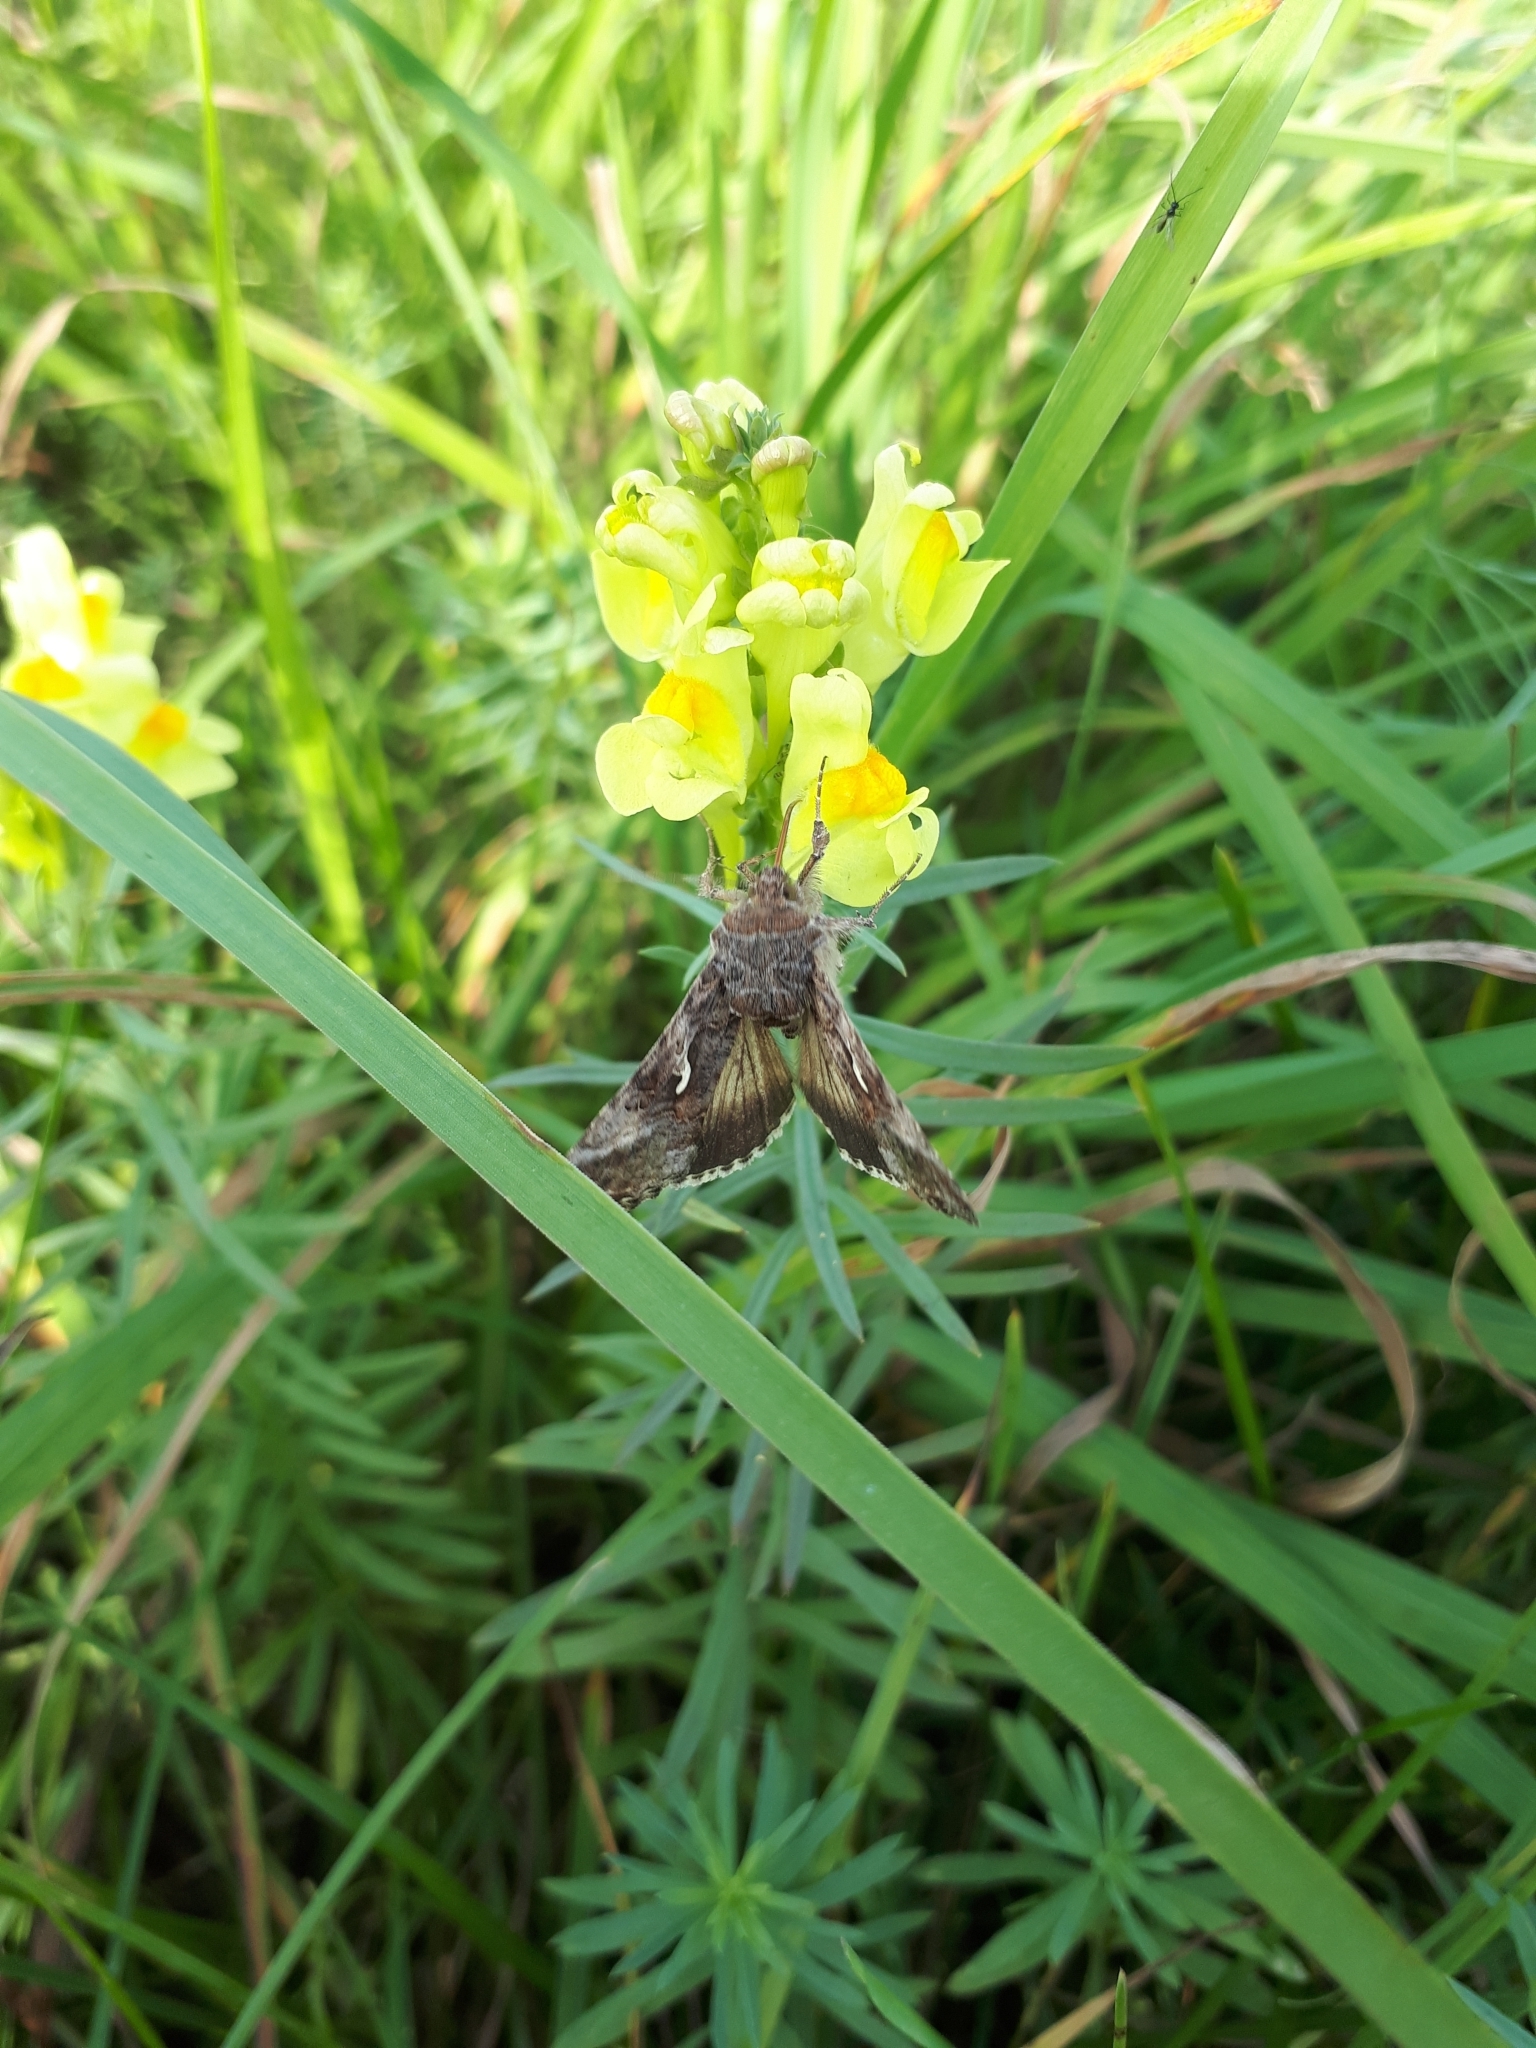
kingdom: Animalia
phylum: Arthropoda
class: Insecta
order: Lepidoptera
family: Noctuidae
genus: Autographa
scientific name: Autographa gamma
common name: Silver y
